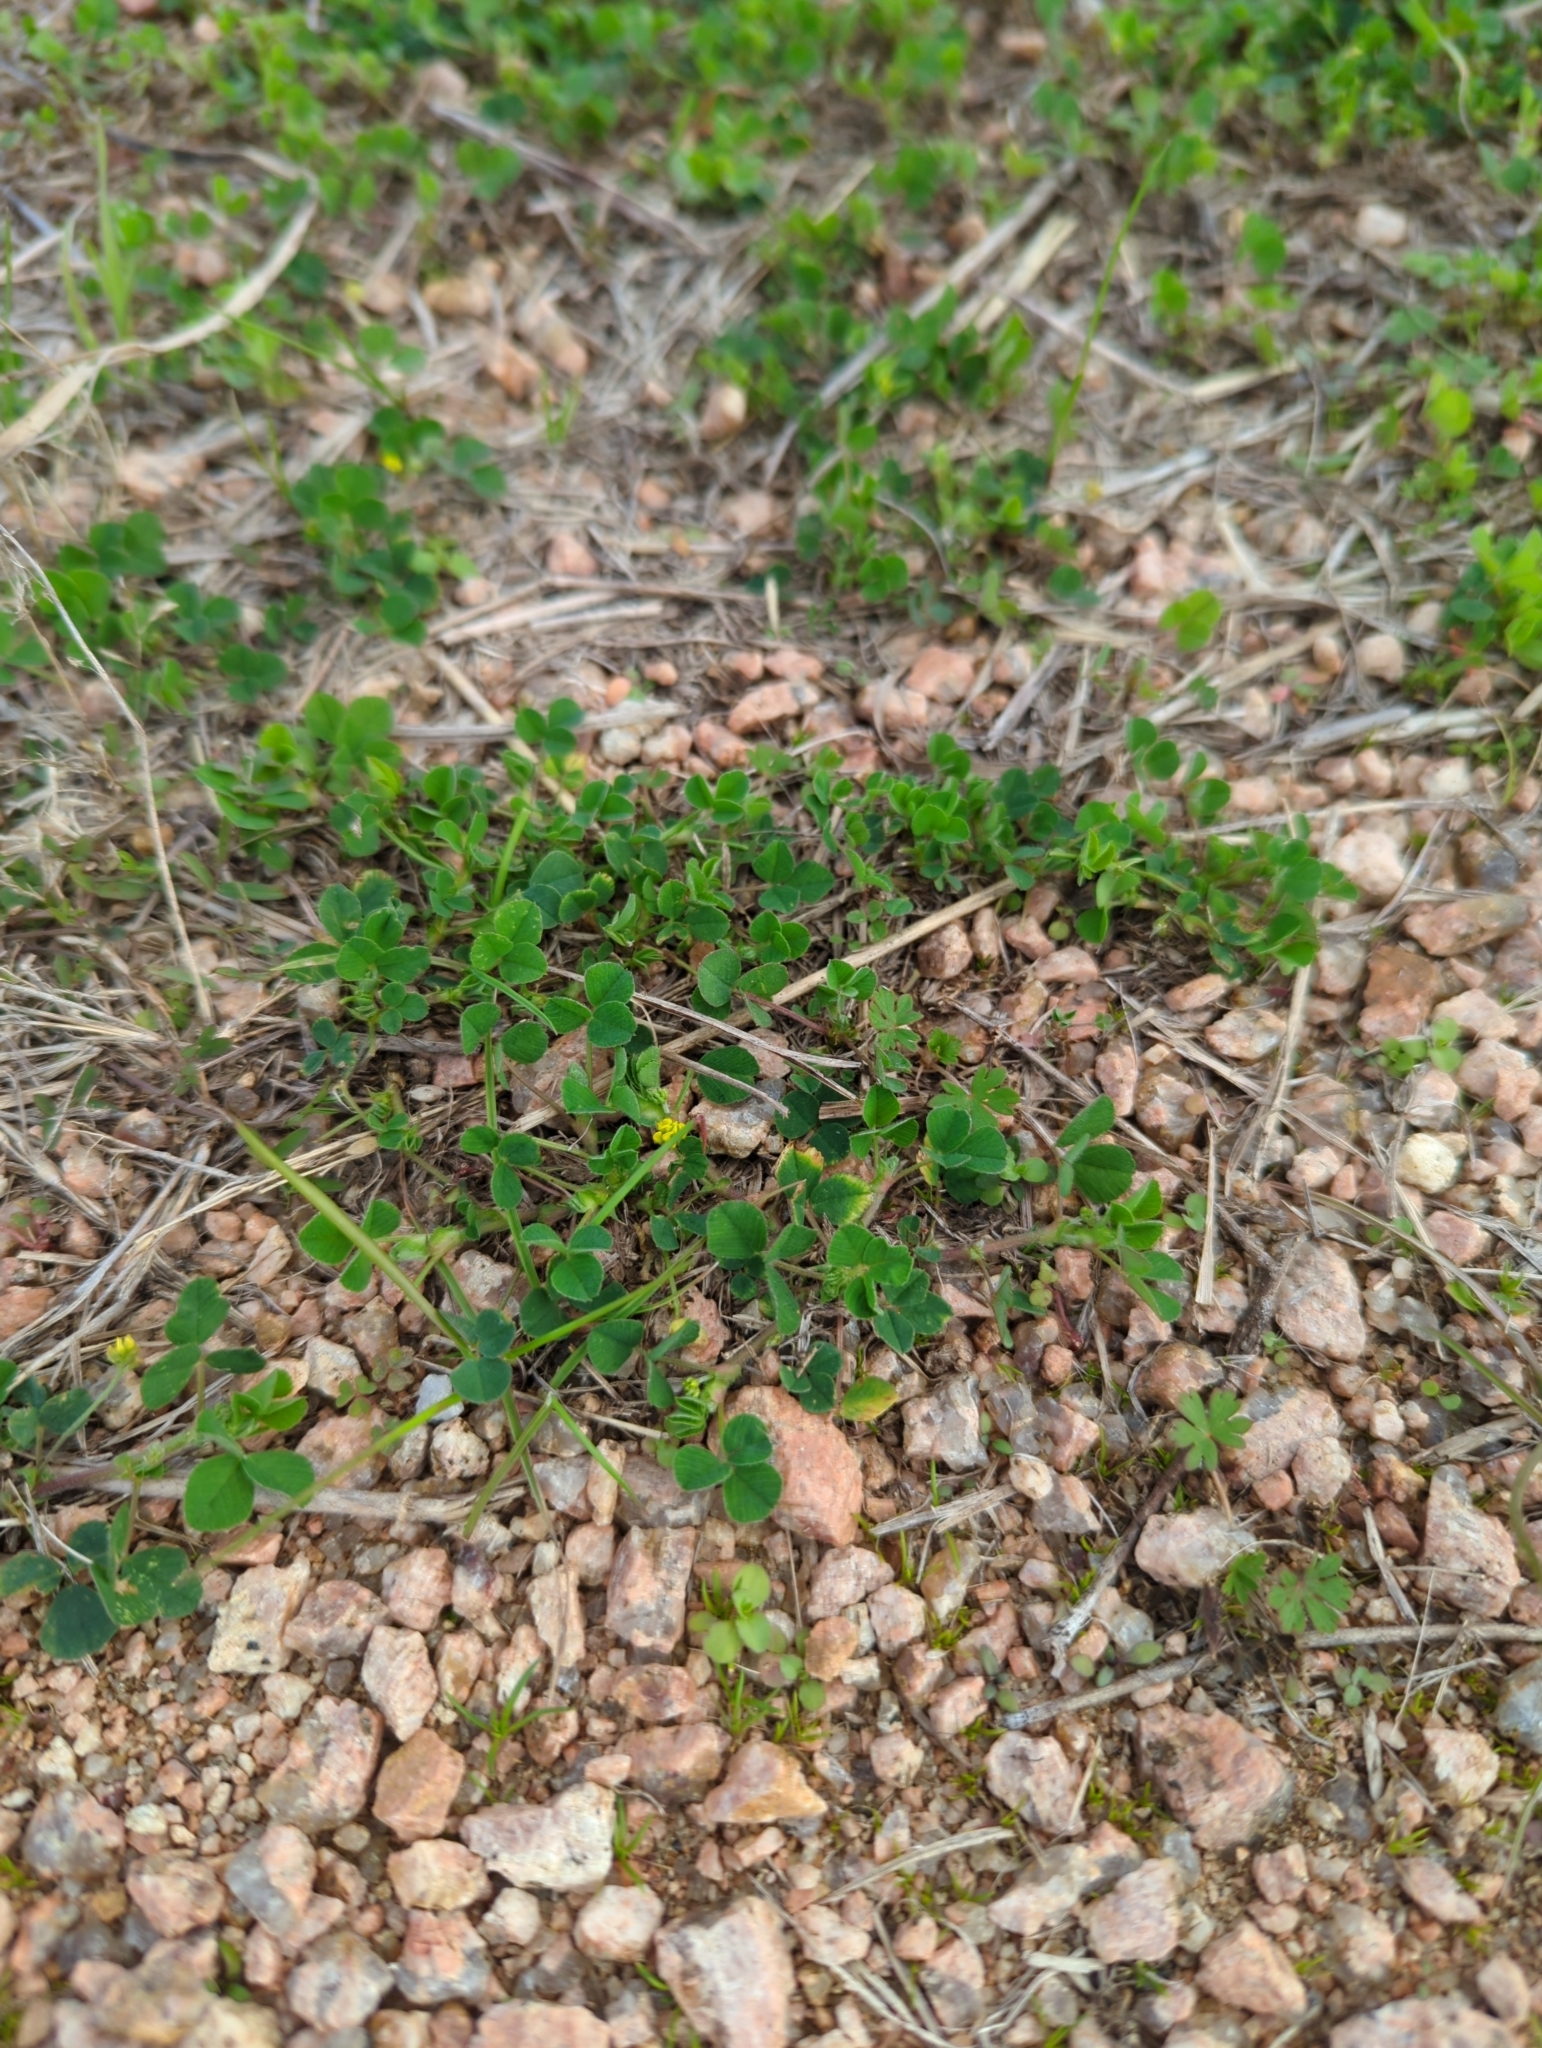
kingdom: Plantae
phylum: Tracheophyta
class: Magnoliopsida
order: Fabales
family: Fabaceae
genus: Medicago
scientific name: Medicago polymorpha
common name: Burclover
